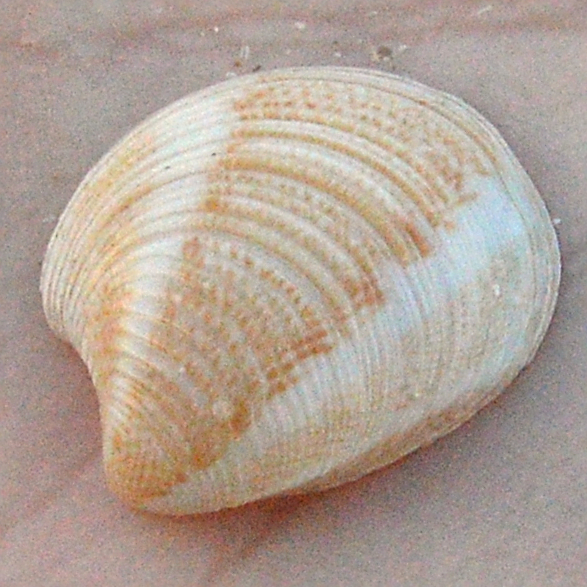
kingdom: Animalia
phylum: Mollusca
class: Bivalvia
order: Venerida
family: Veneridae
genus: Chamelea
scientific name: Chamelea gallina
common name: Chicken venus
